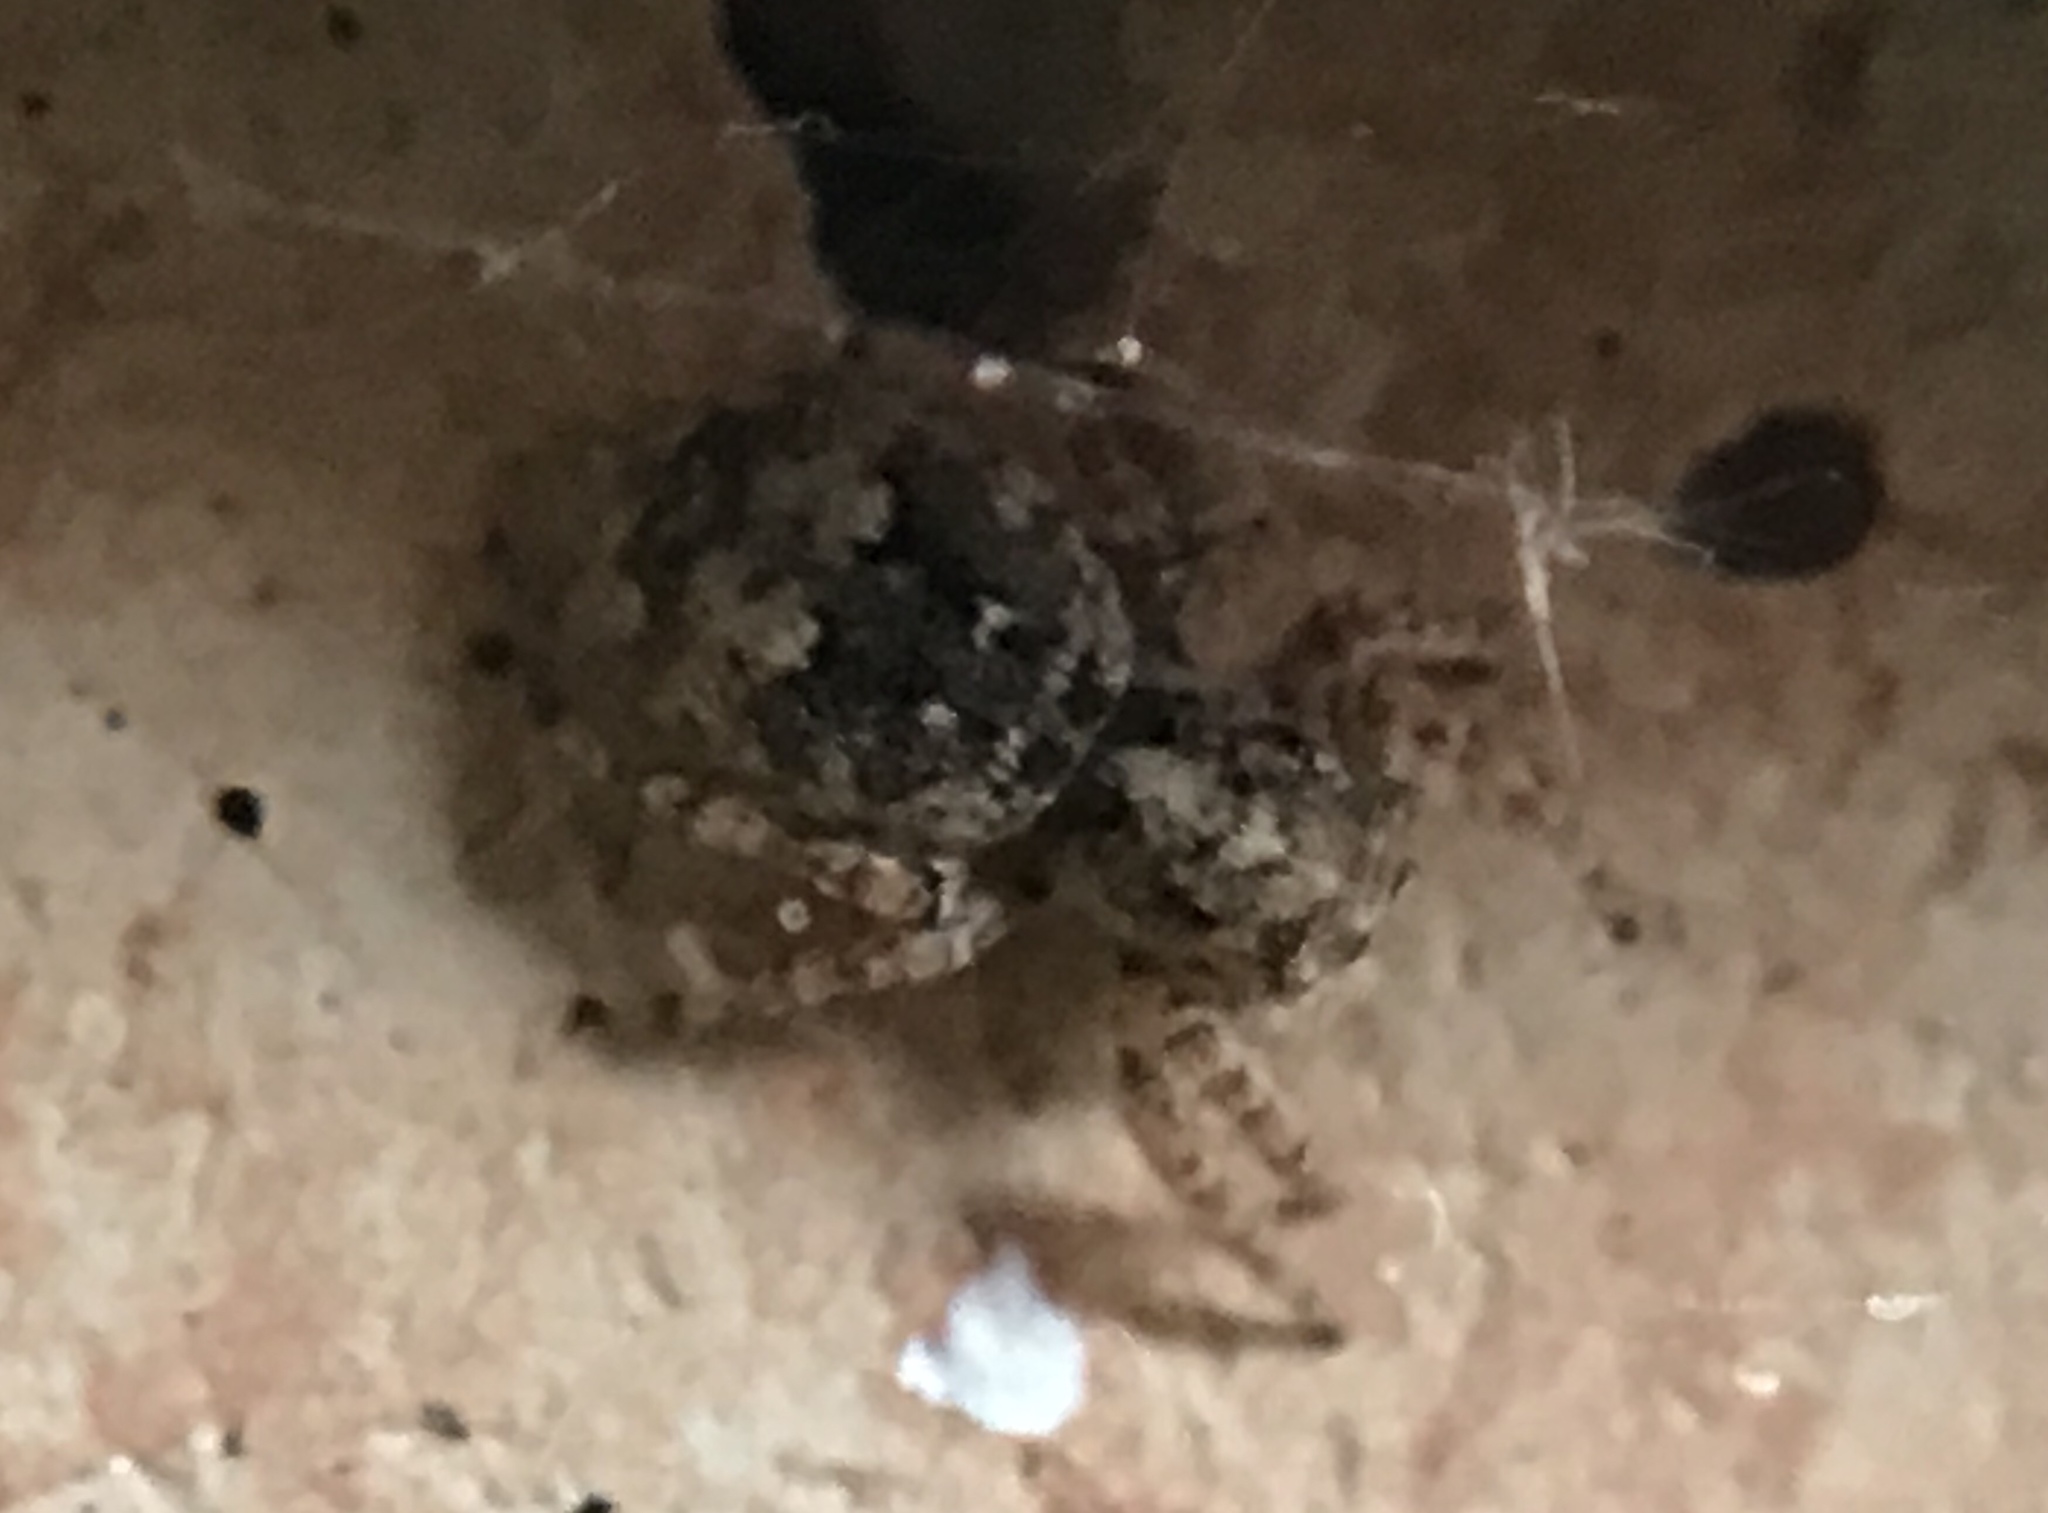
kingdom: Animalia
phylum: Arthropoda
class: Arachnida
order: Araneae
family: Salticidae
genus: Attulus
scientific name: Attulus fasciger
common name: Asiatic wall jumping spider
